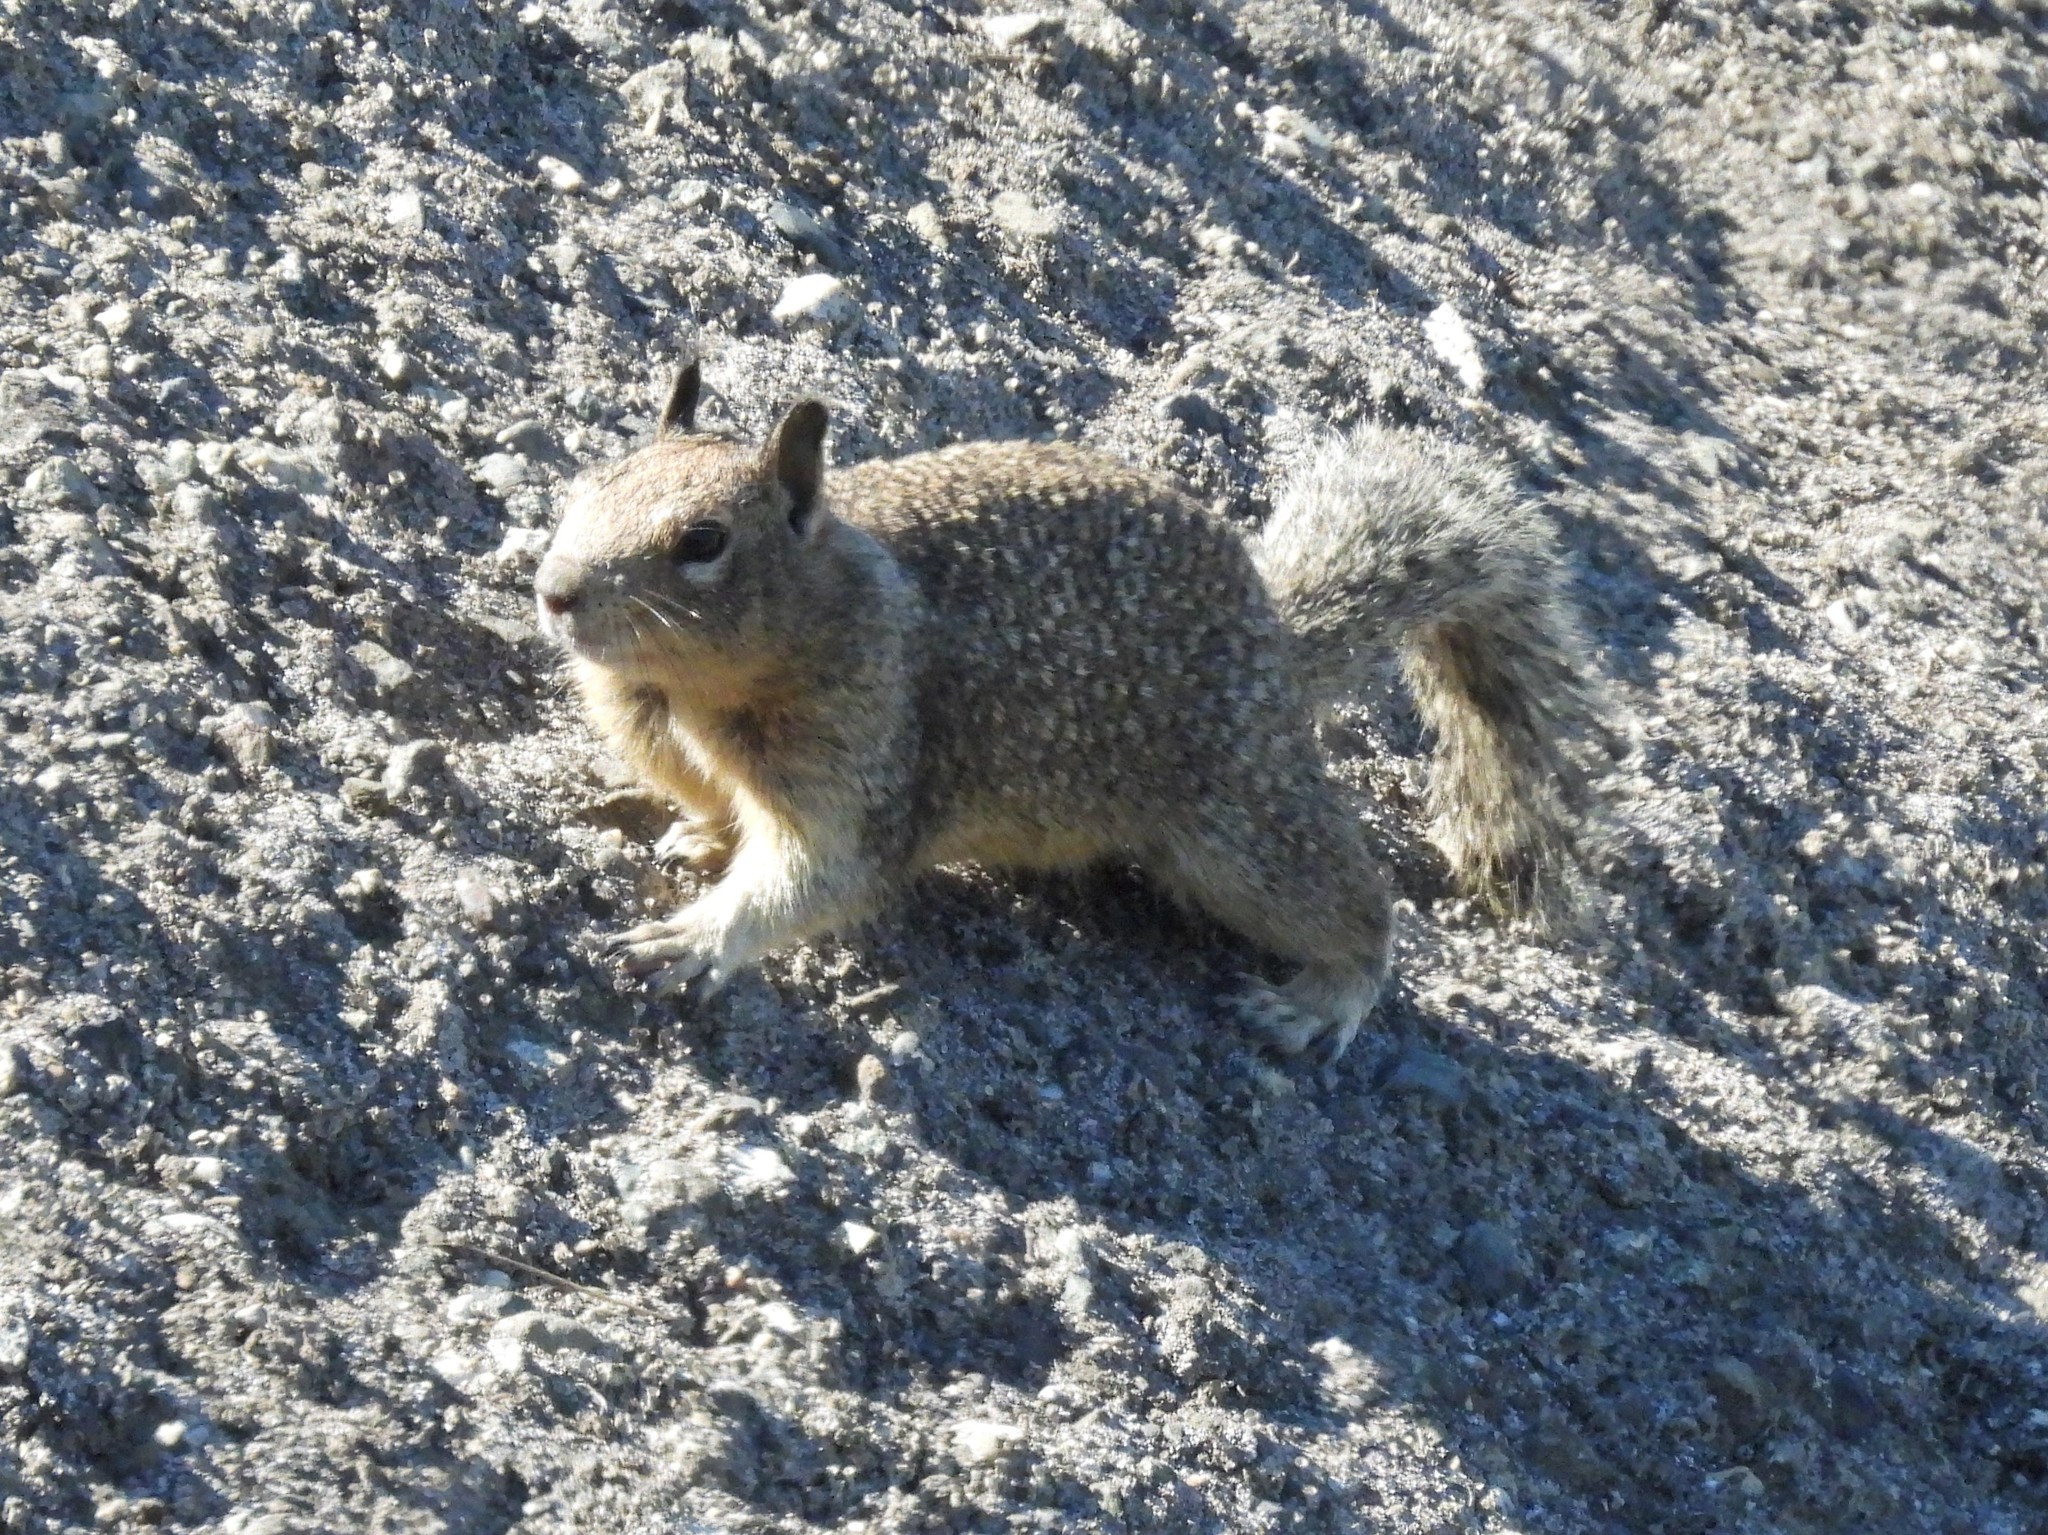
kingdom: Animalia
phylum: Chordata
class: Mammalia
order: Rodentia
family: Sciuridae
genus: Otospermophilus
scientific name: Otospermophilus beecheyi
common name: California ground squirrel
